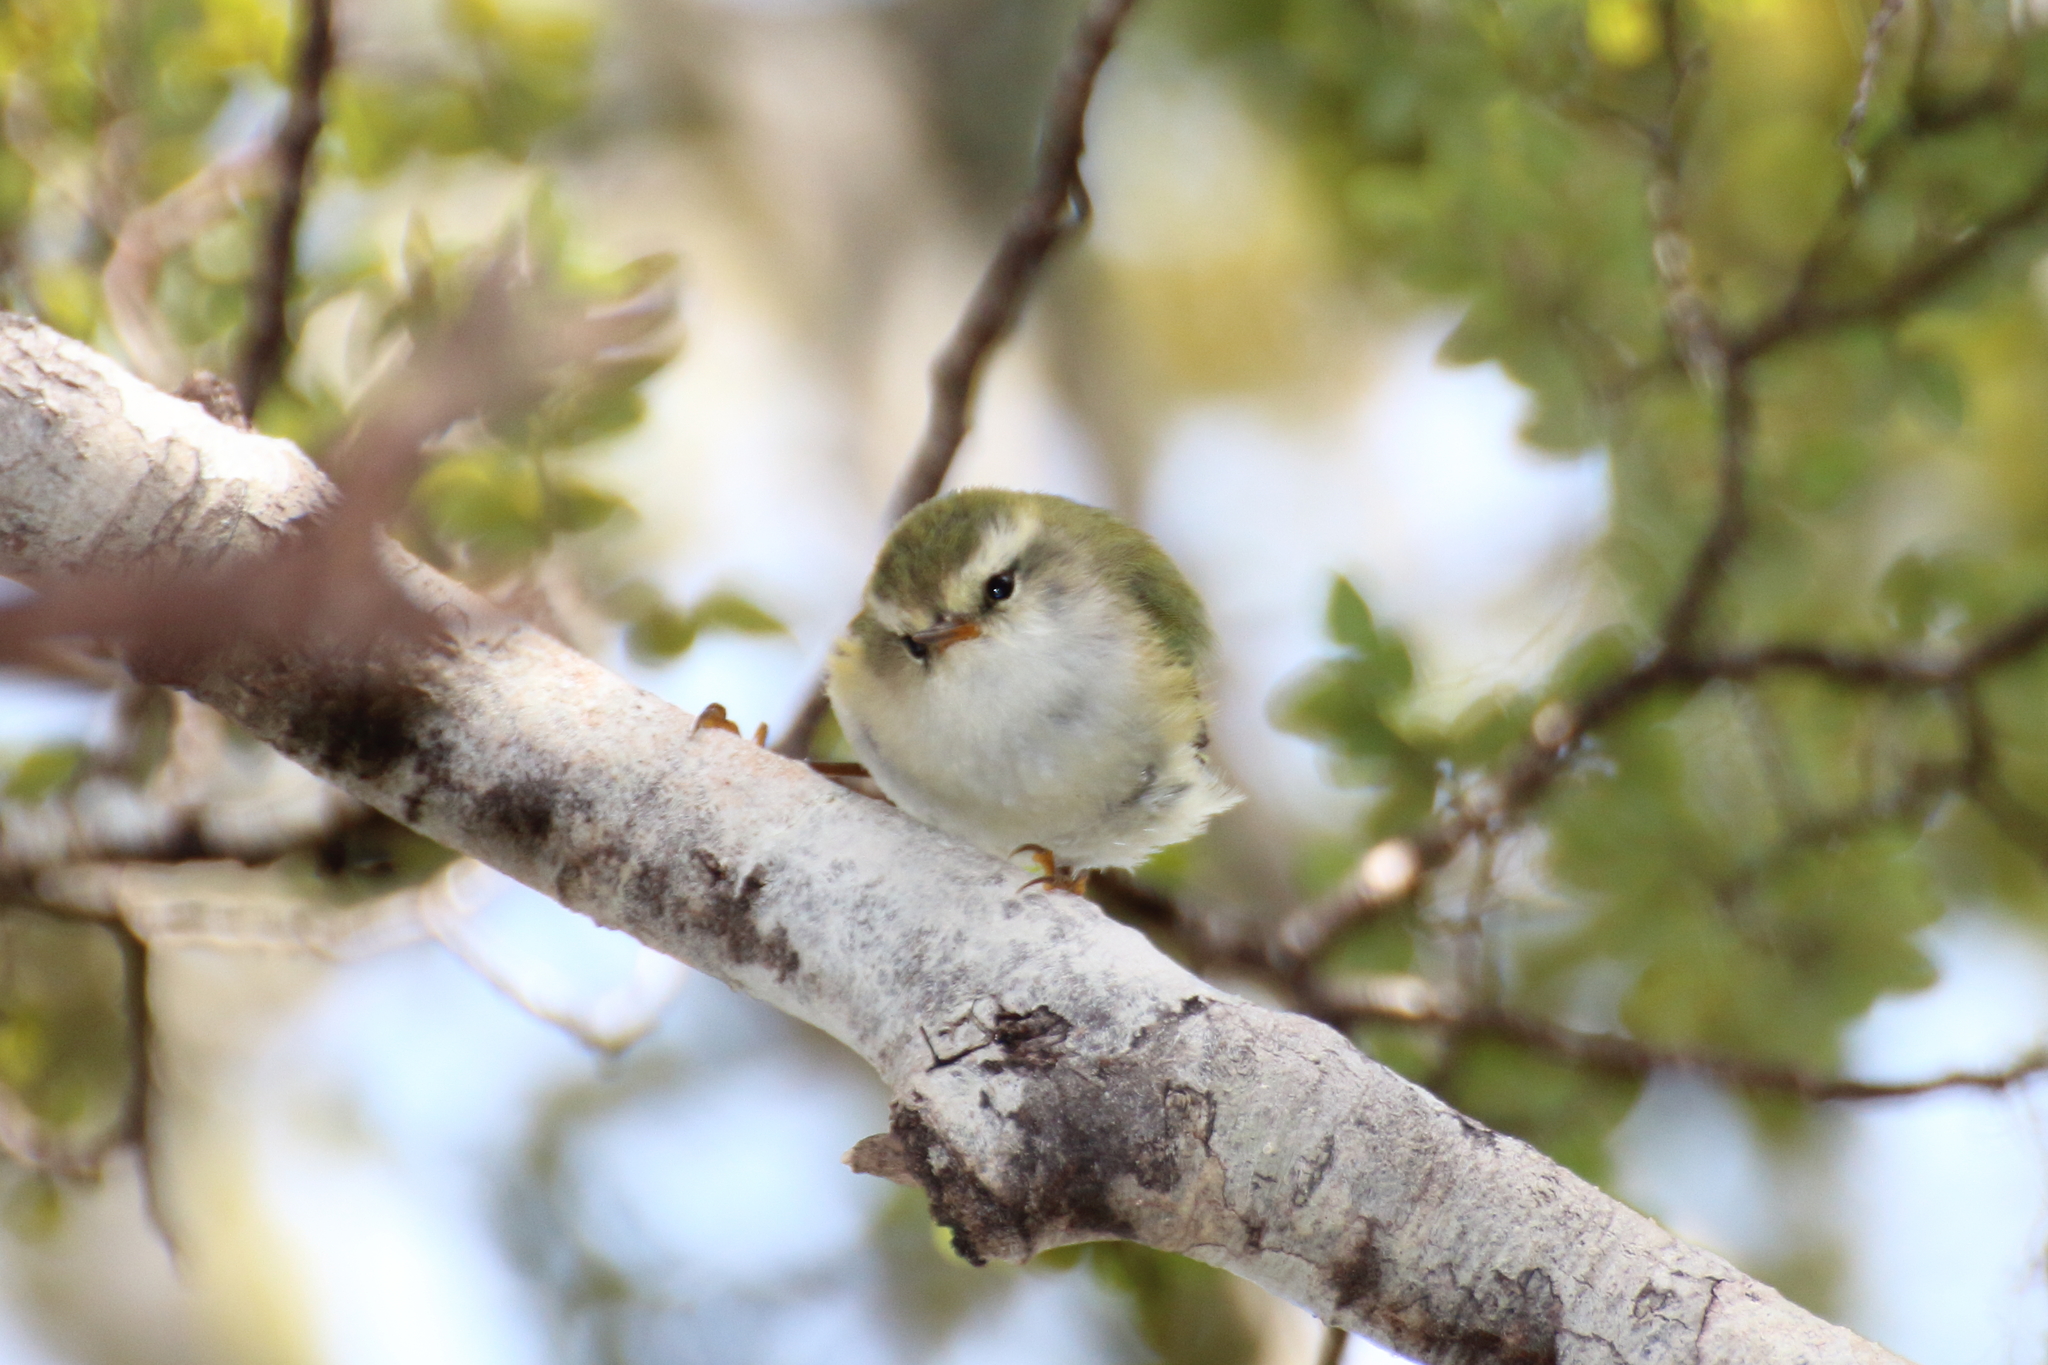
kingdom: Animalia
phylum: Chordata
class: Aves
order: Passeriformes
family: Acanthisittidae
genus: Acanthisitta
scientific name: Acanthisitta chloris
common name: Rifleman
